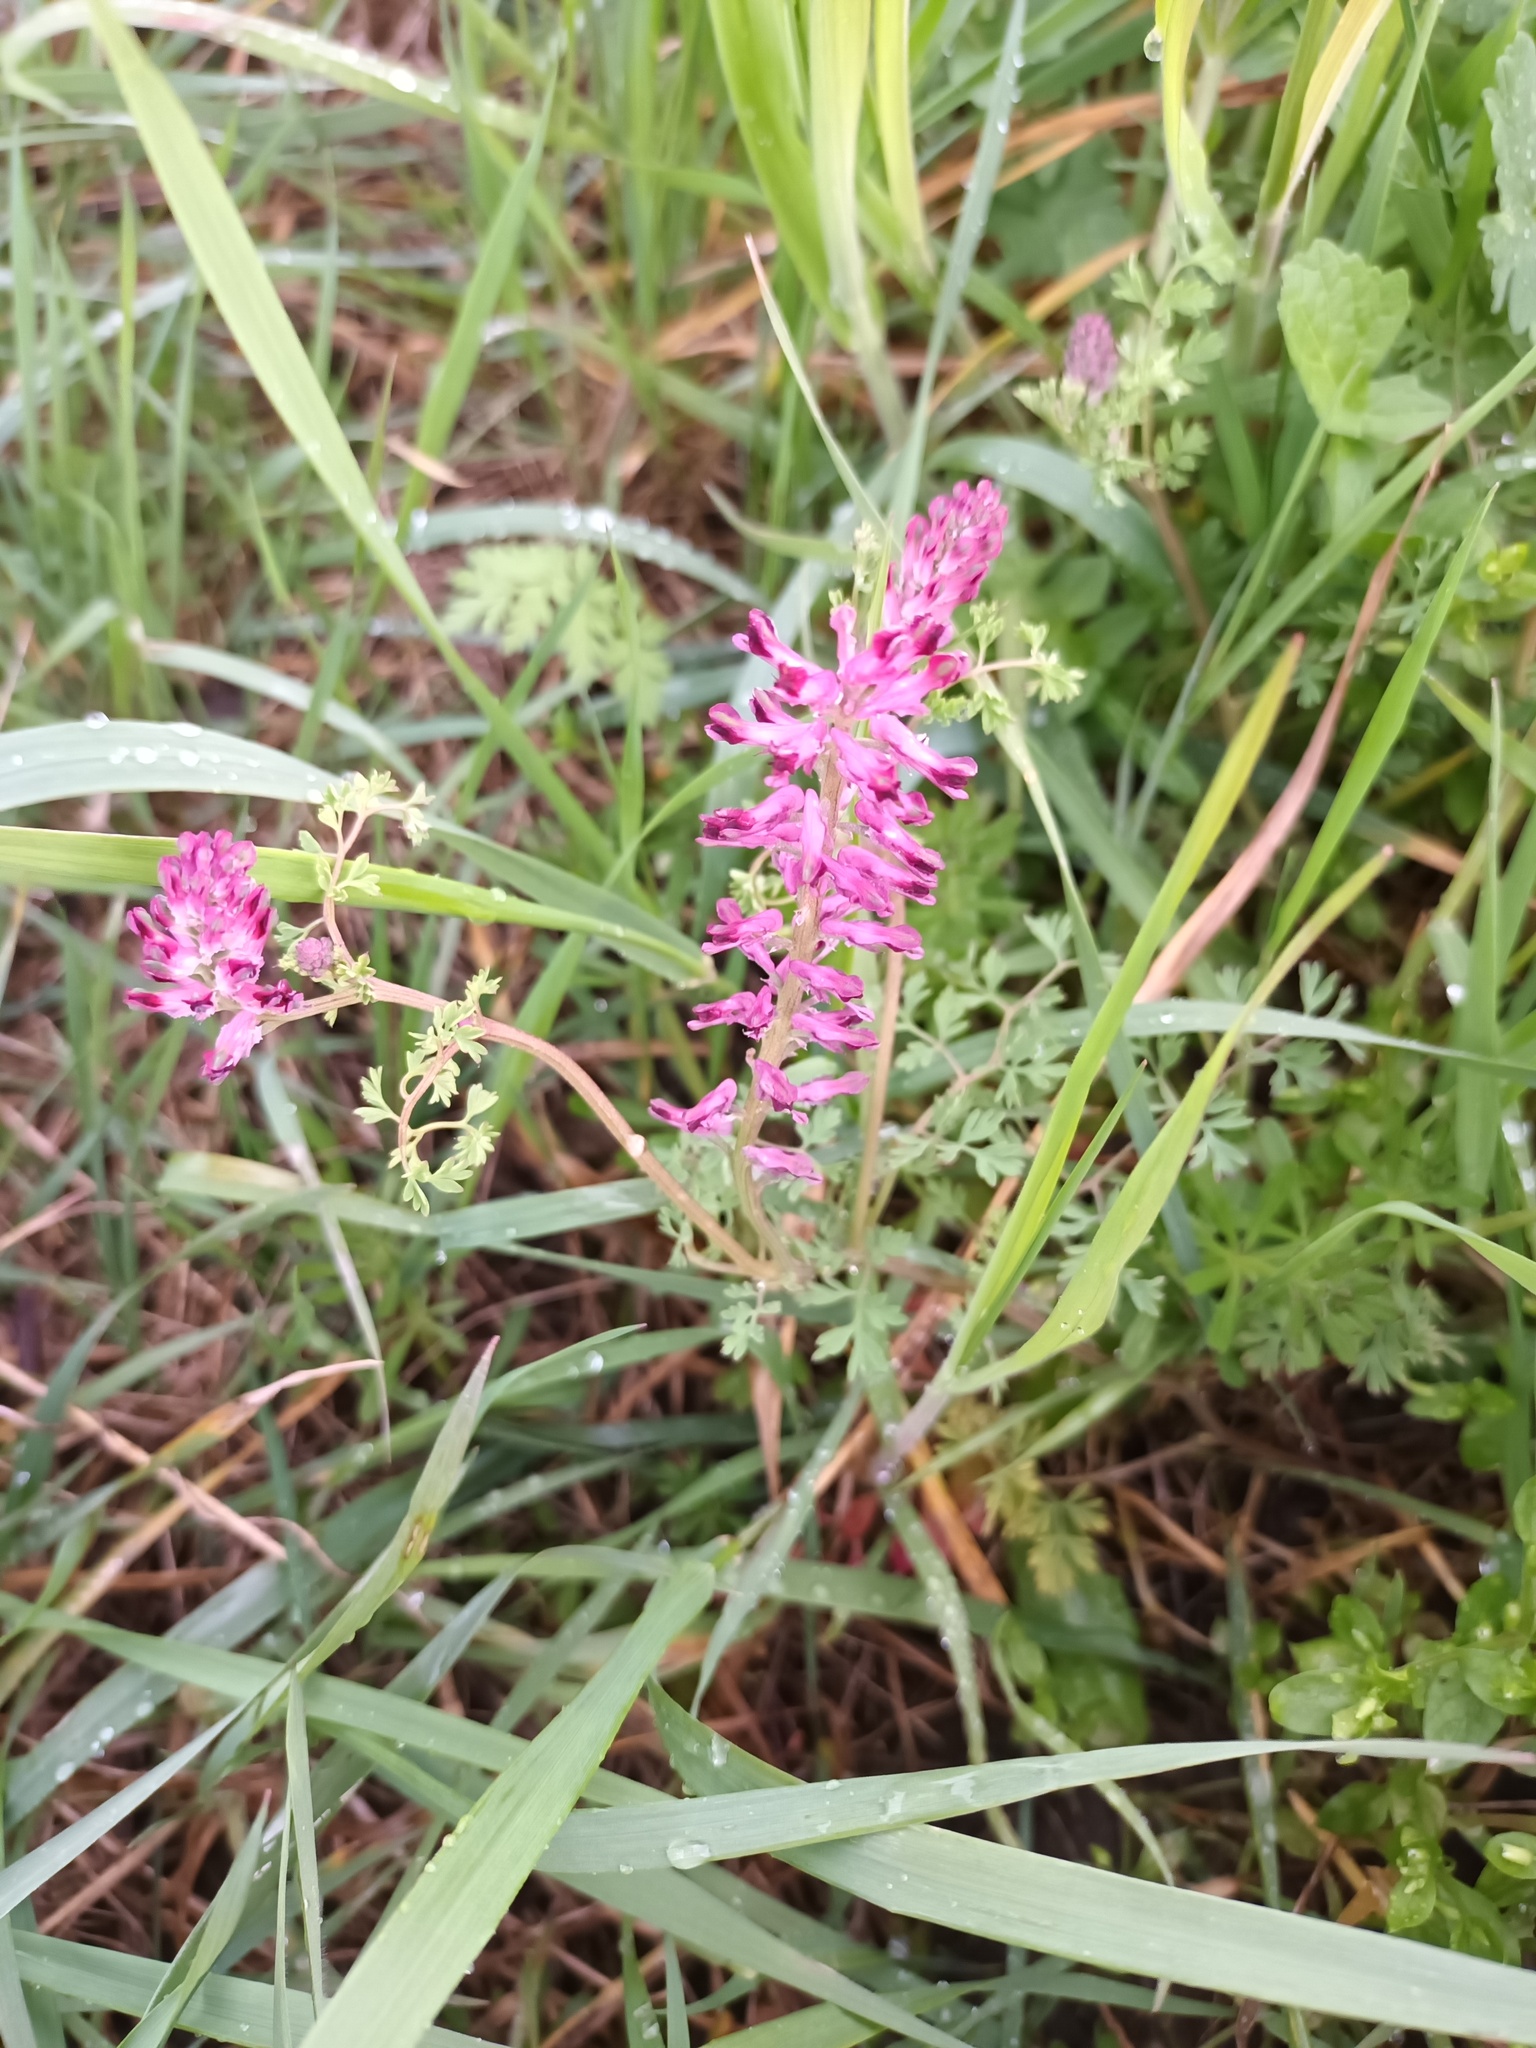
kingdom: Plantae
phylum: Tracheophyta
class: Magnoliopsida
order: Ranunculales
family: Papaveraceae
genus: Fumaria
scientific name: Fumaria officinalis
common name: Common fumitory
